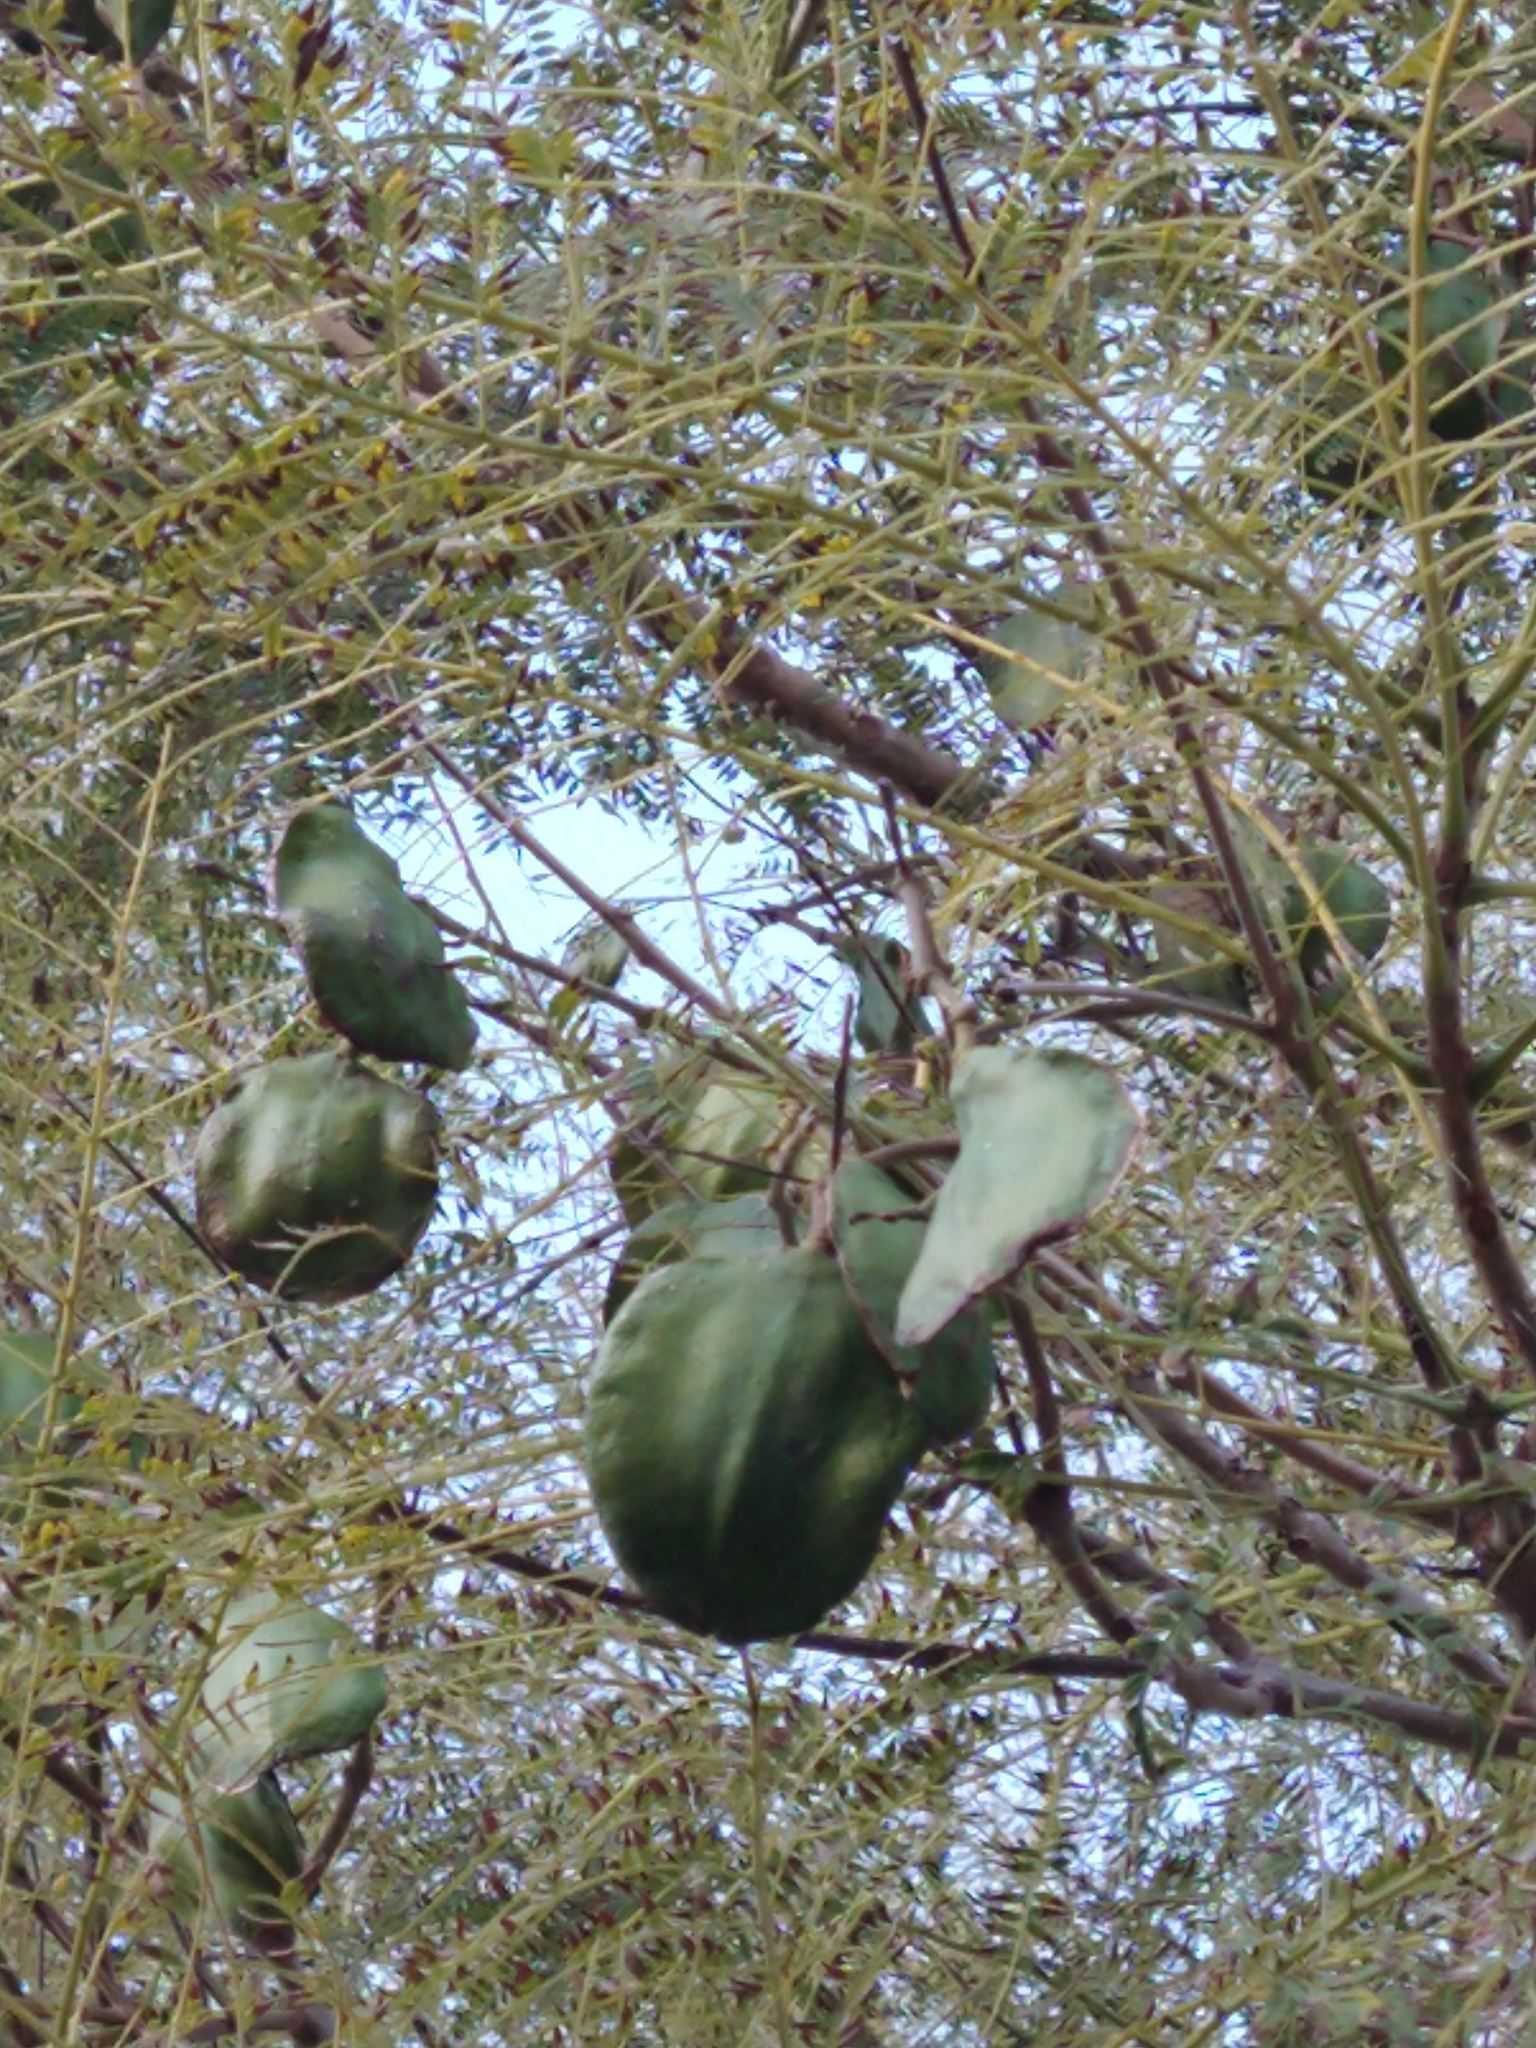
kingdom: Plantae
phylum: Tracheophyta
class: Magnoliopsida
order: Lamiales
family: Bignoniaceae
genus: Jacaranda
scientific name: Jacaranda mimosifolia
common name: Black poui
